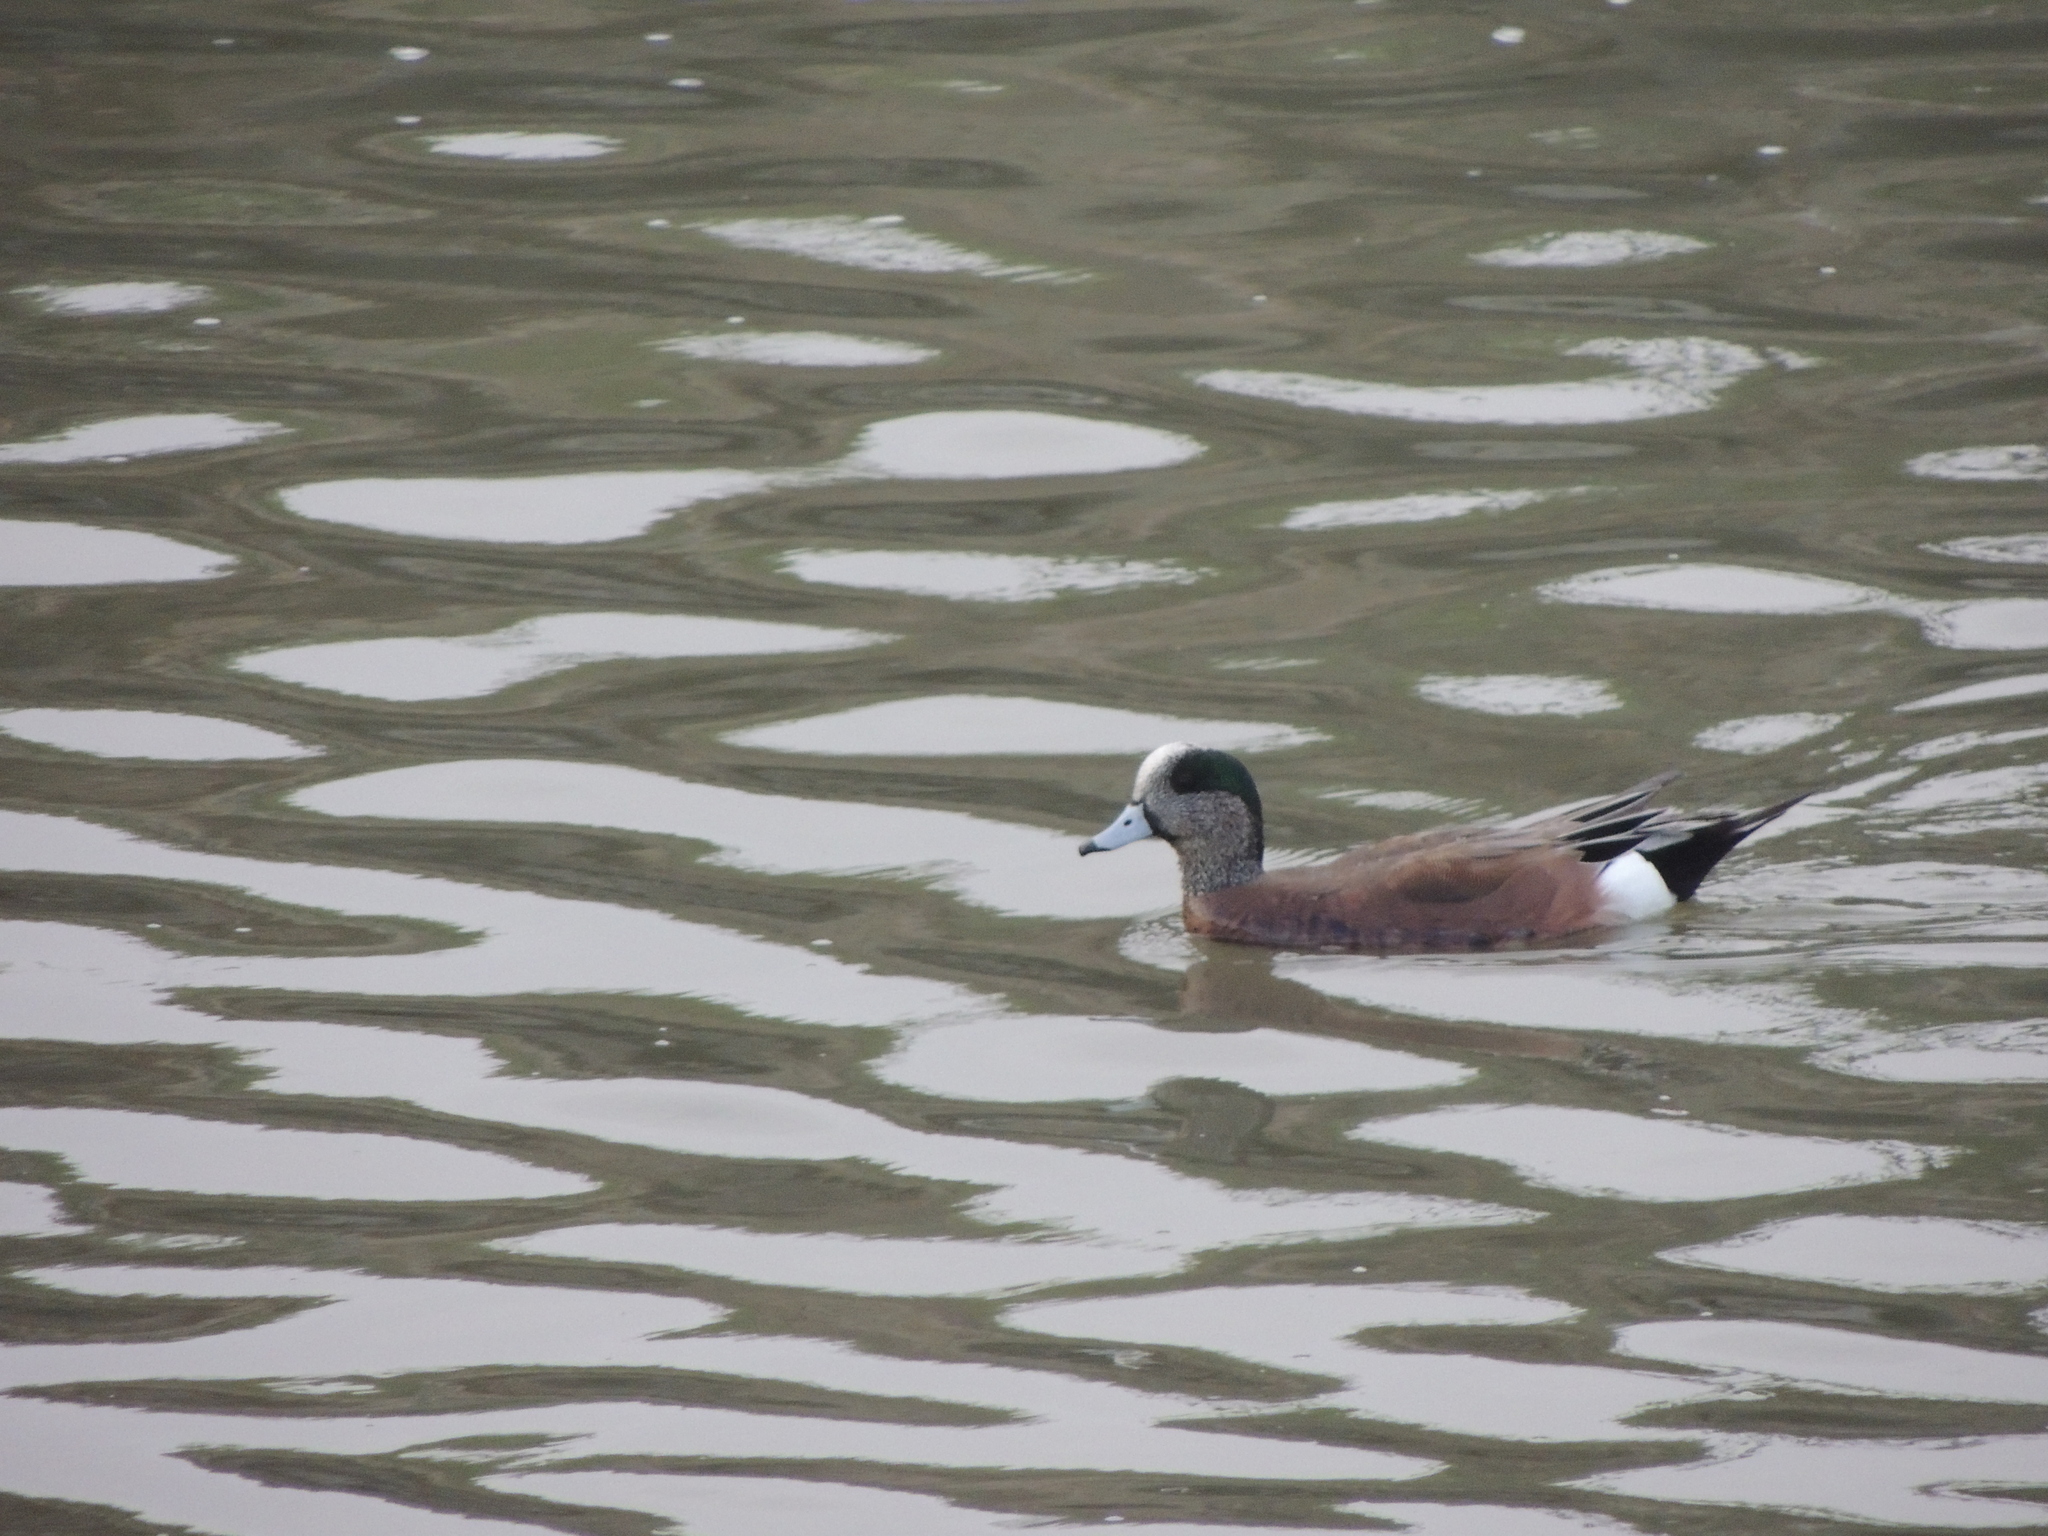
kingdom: Animalia
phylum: Chordata
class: Aves
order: Anseriformes
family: Anatidae
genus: Mareca
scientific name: Mareca americana
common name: American wigeon
